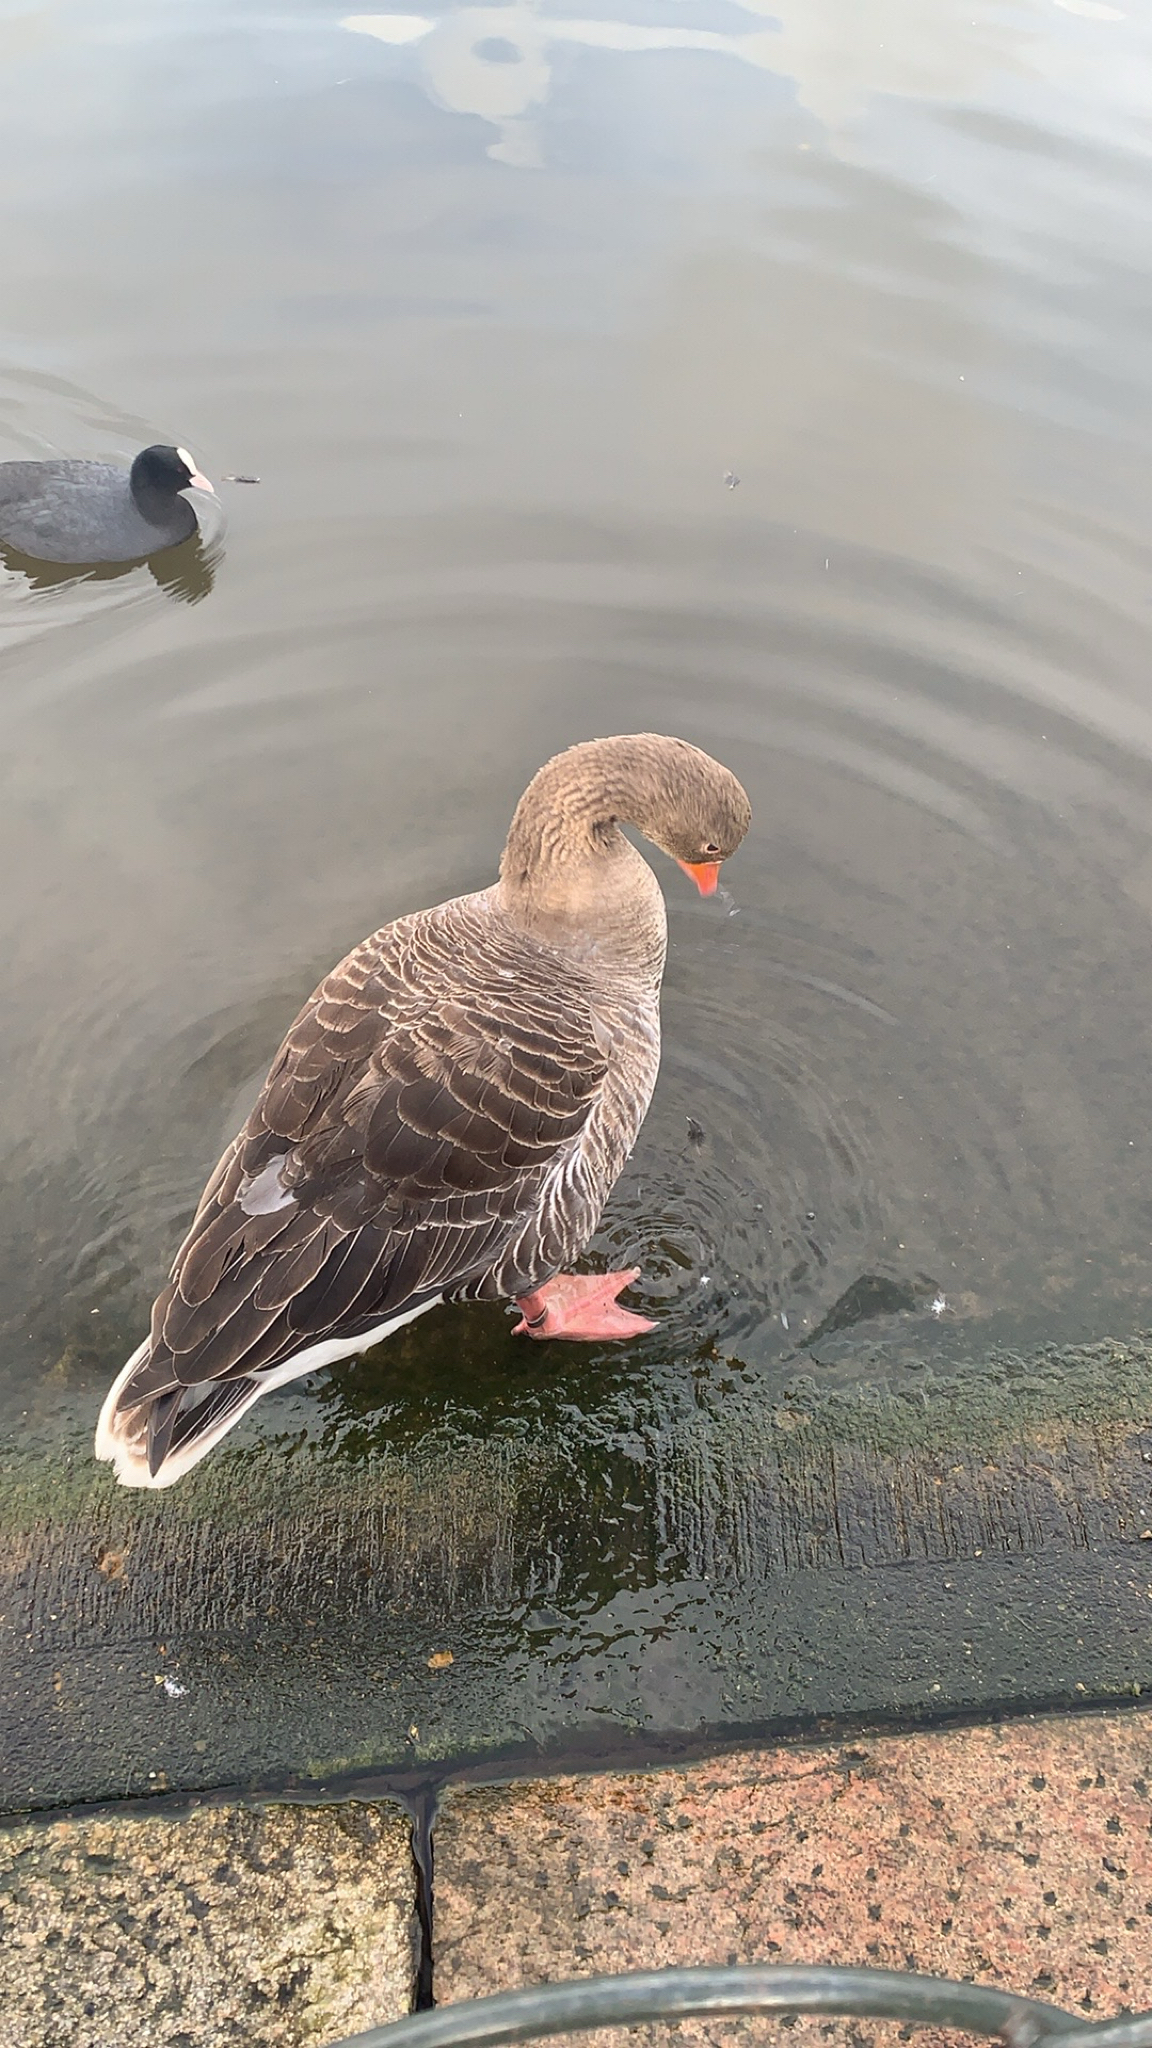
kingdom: Animalia
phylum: Chordata
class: Aves
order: Anseriformes
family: Anatidae
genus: Anser
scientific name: Anser anser
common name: Greylag goose
